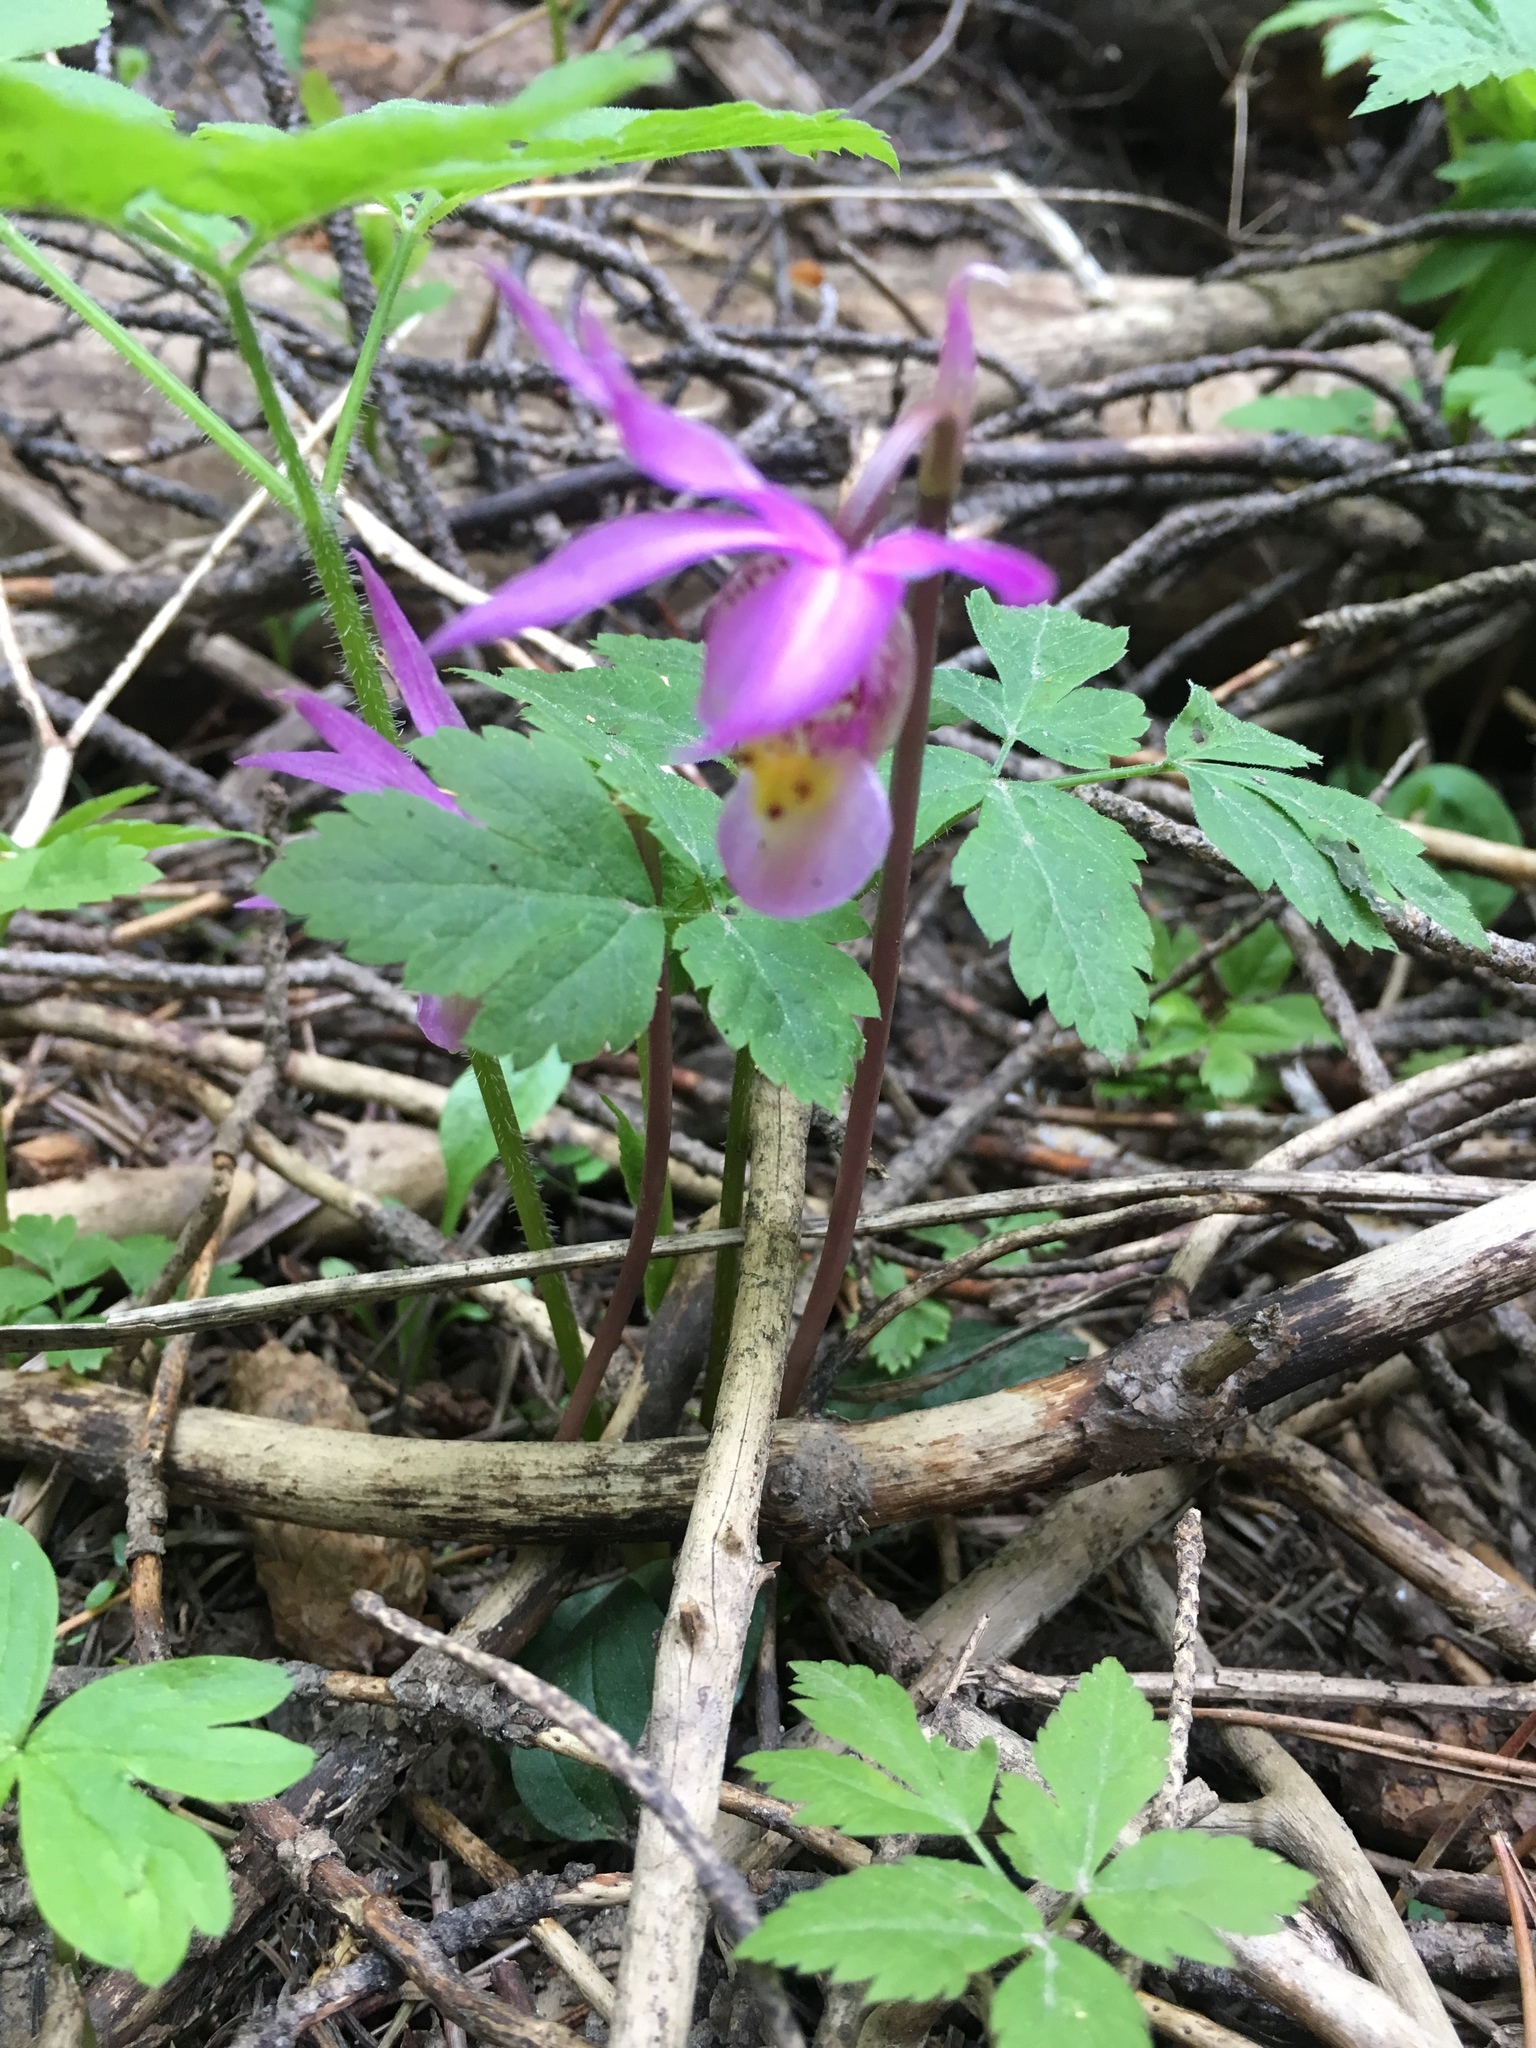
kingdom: Plantae
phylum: Tracheophyta
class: Liliopsida
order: Asparagales
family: Orchidaceae
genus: Calypso
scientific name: Calypso bulbosa
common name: Calypso
